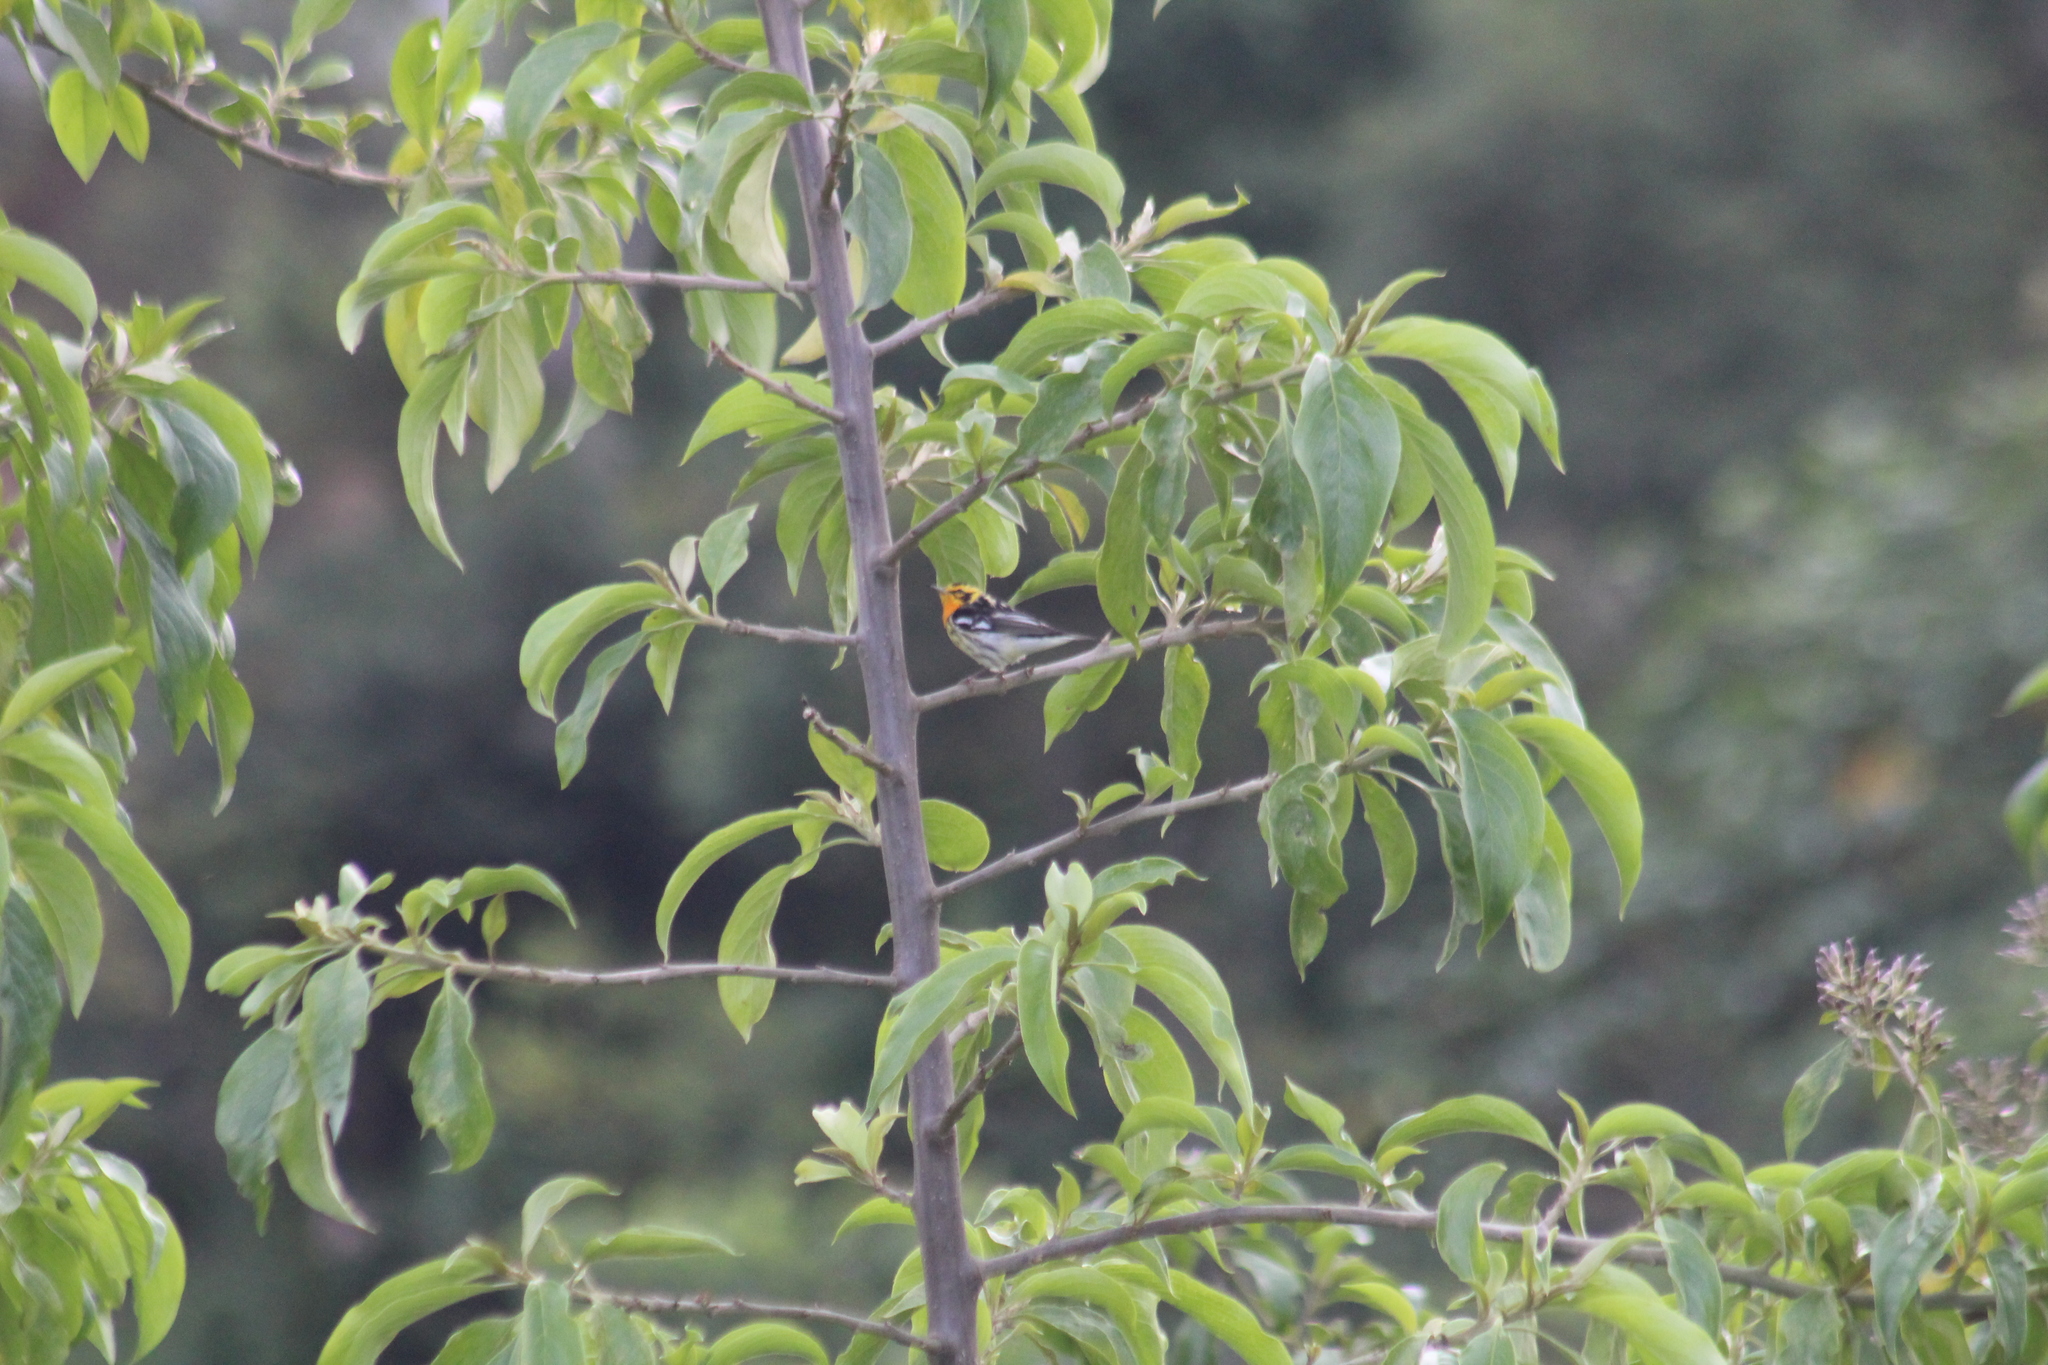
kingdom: Animalia
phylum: Chordata
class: Aves
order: Passeriformes
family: Parulidae
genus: Setophaga
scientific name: Setophaga fusca
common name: Blackburnian warbler
